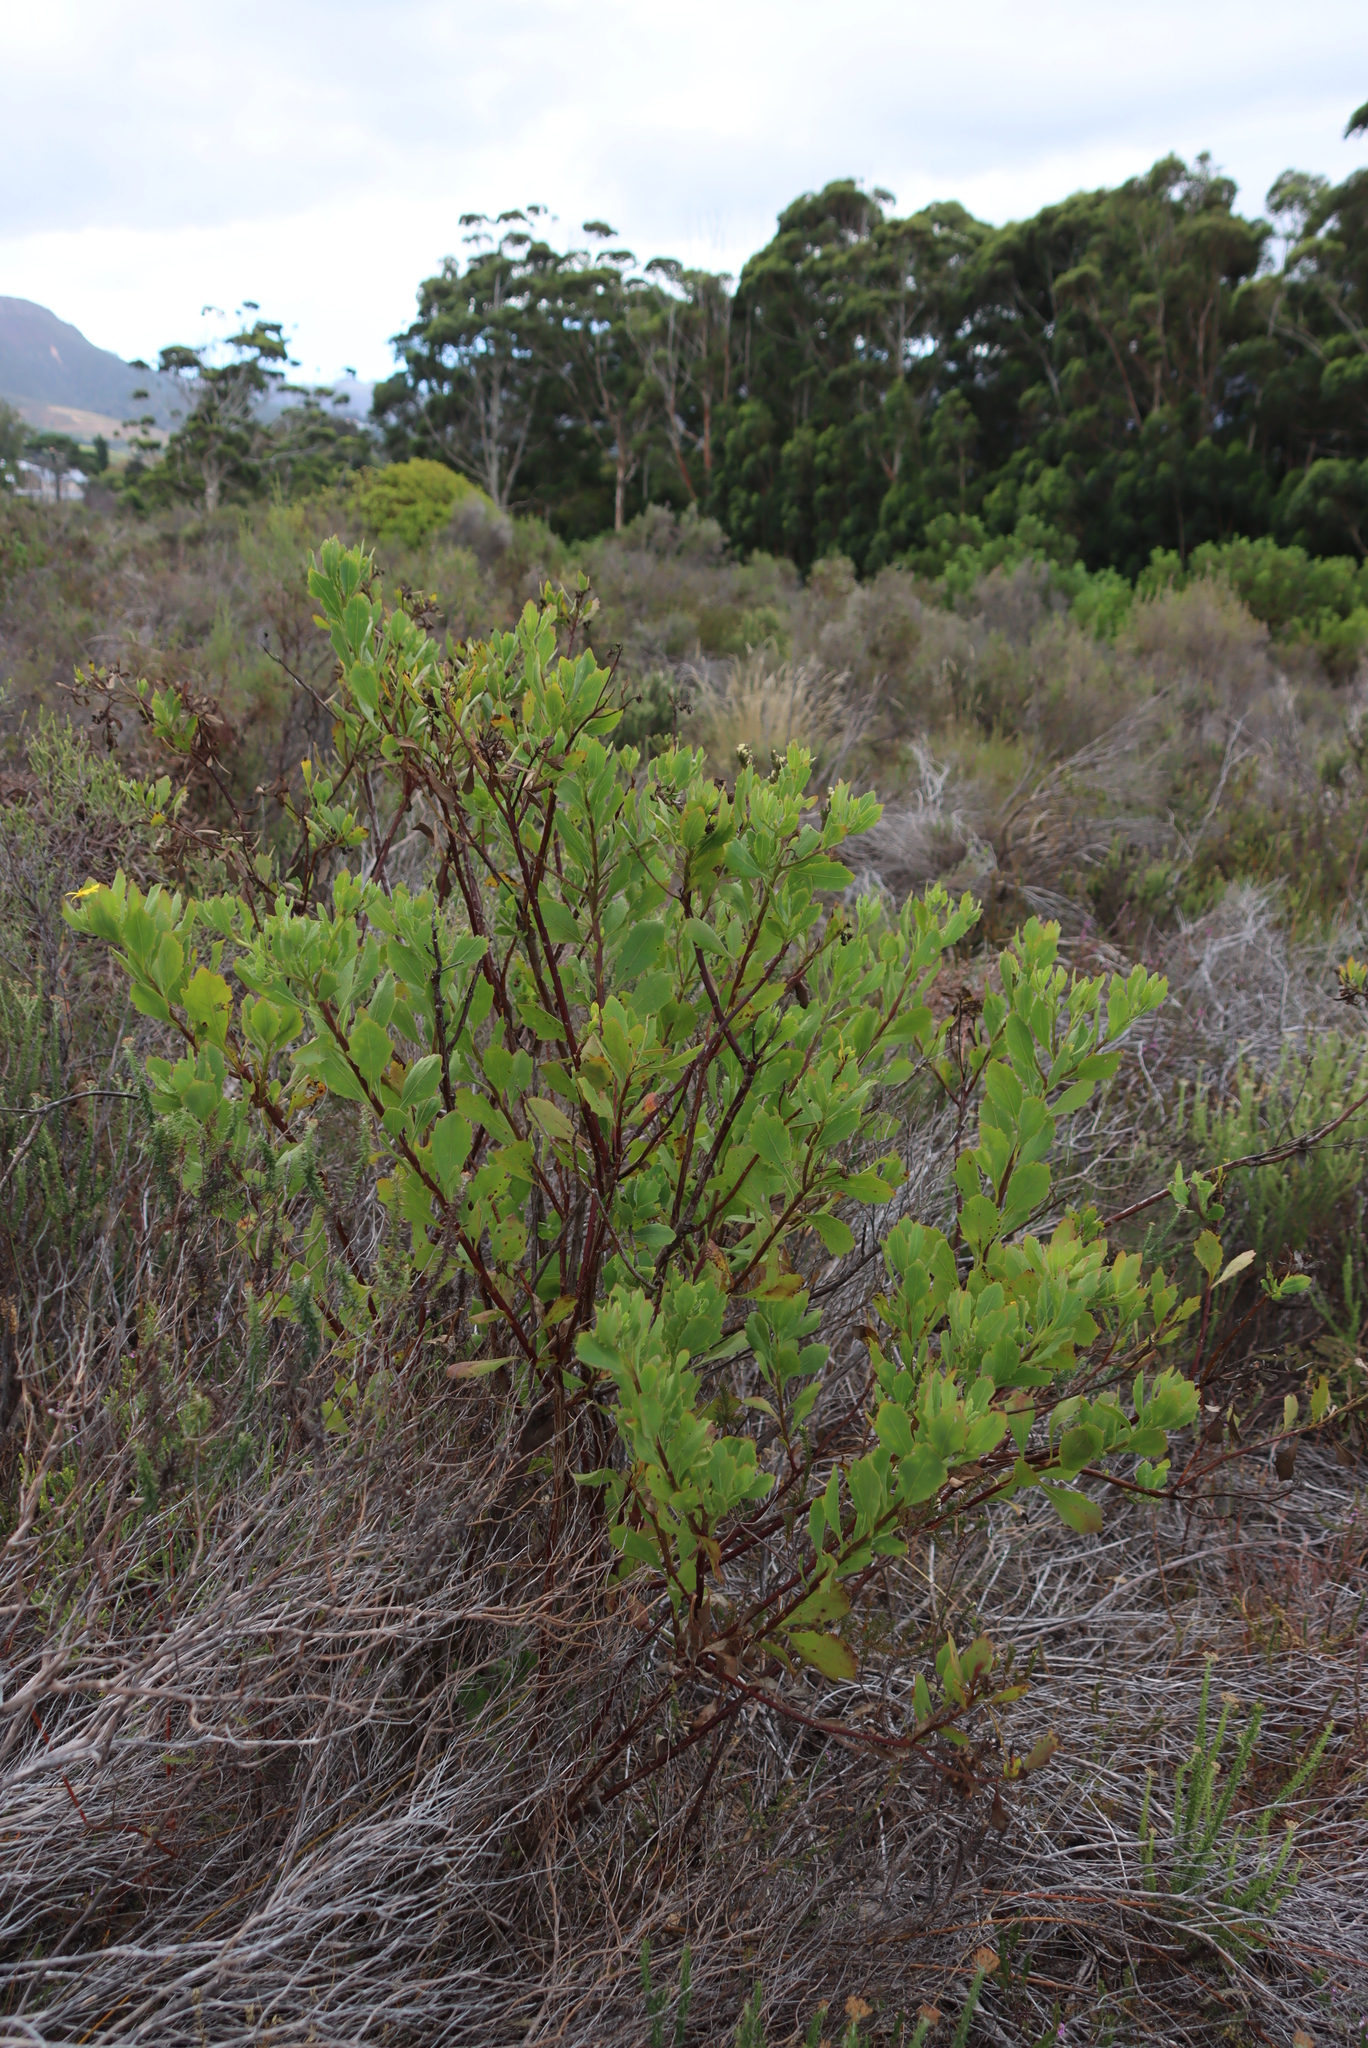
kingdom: Plantae
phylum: Tracheophyta
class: Magnoliopsida
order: Asterales
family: Asteraceae
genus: Osteospermum
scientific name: Osteospermum moniliferum
